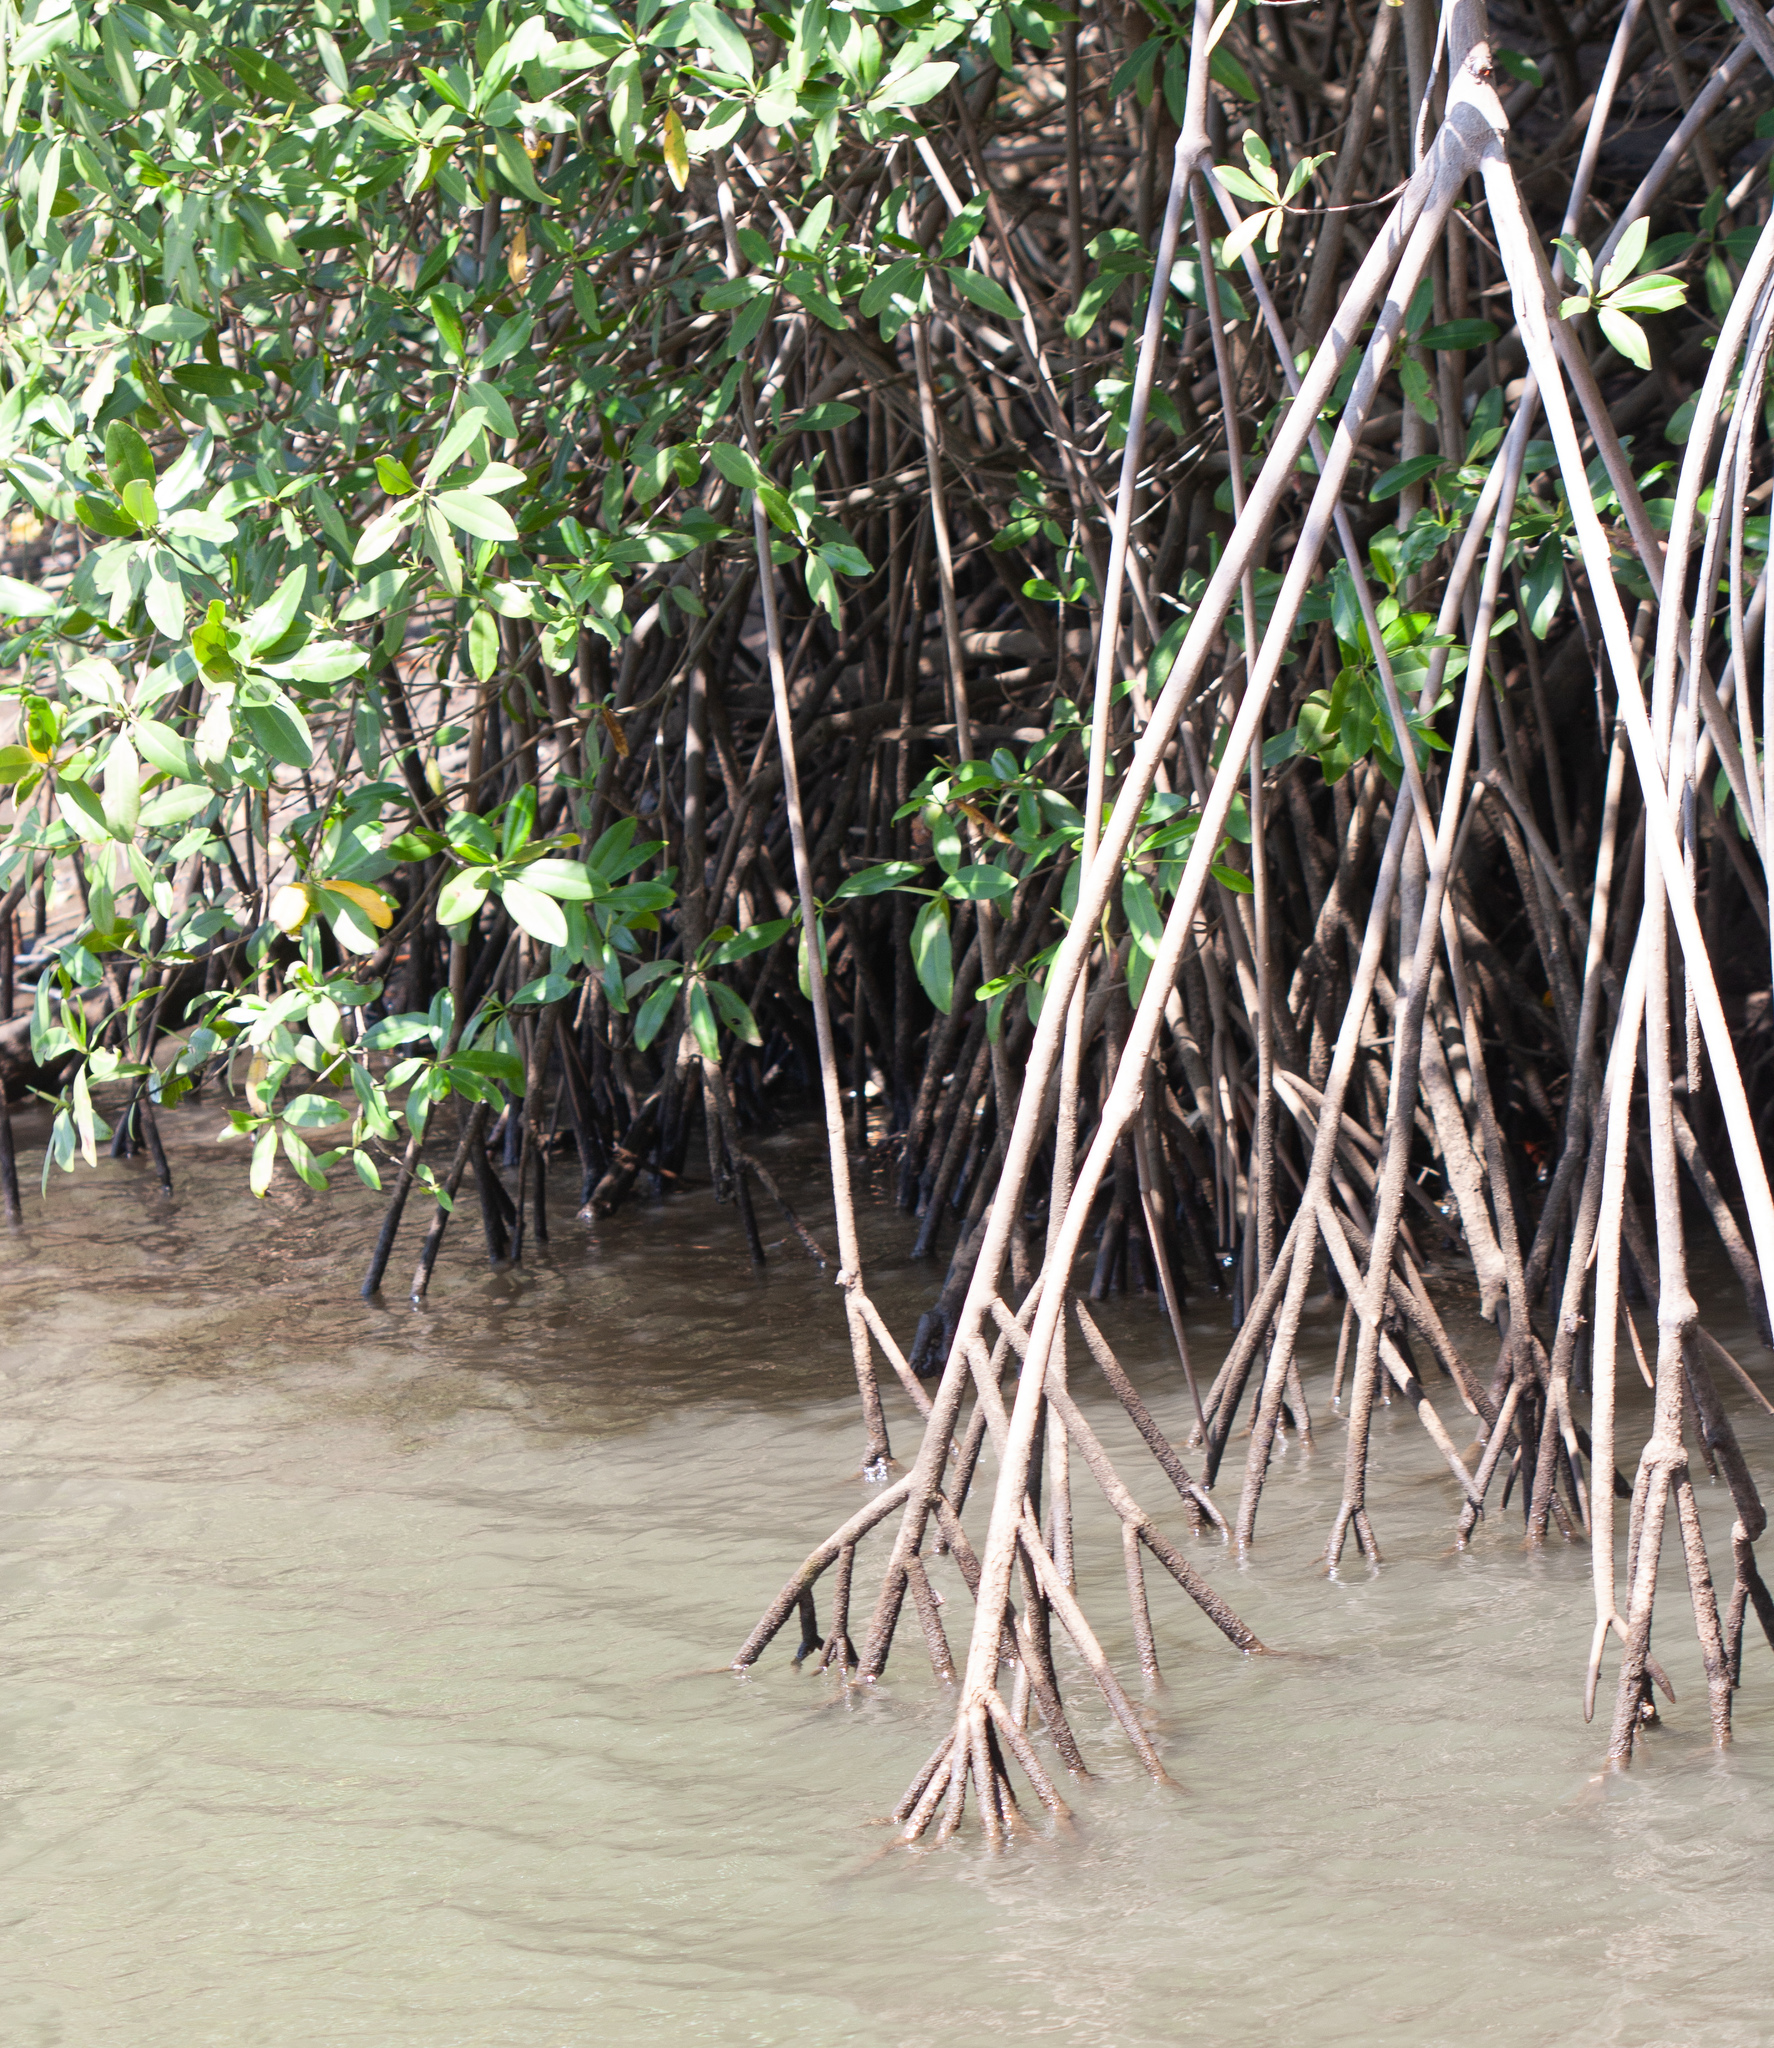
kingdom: Plantae
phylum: Tracheophyta
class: Magnoliopsida
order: Malpighiales
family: Rhizophoraceae
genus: Rhizophora
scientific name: Rhizophora mangle
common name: Red mangrove
